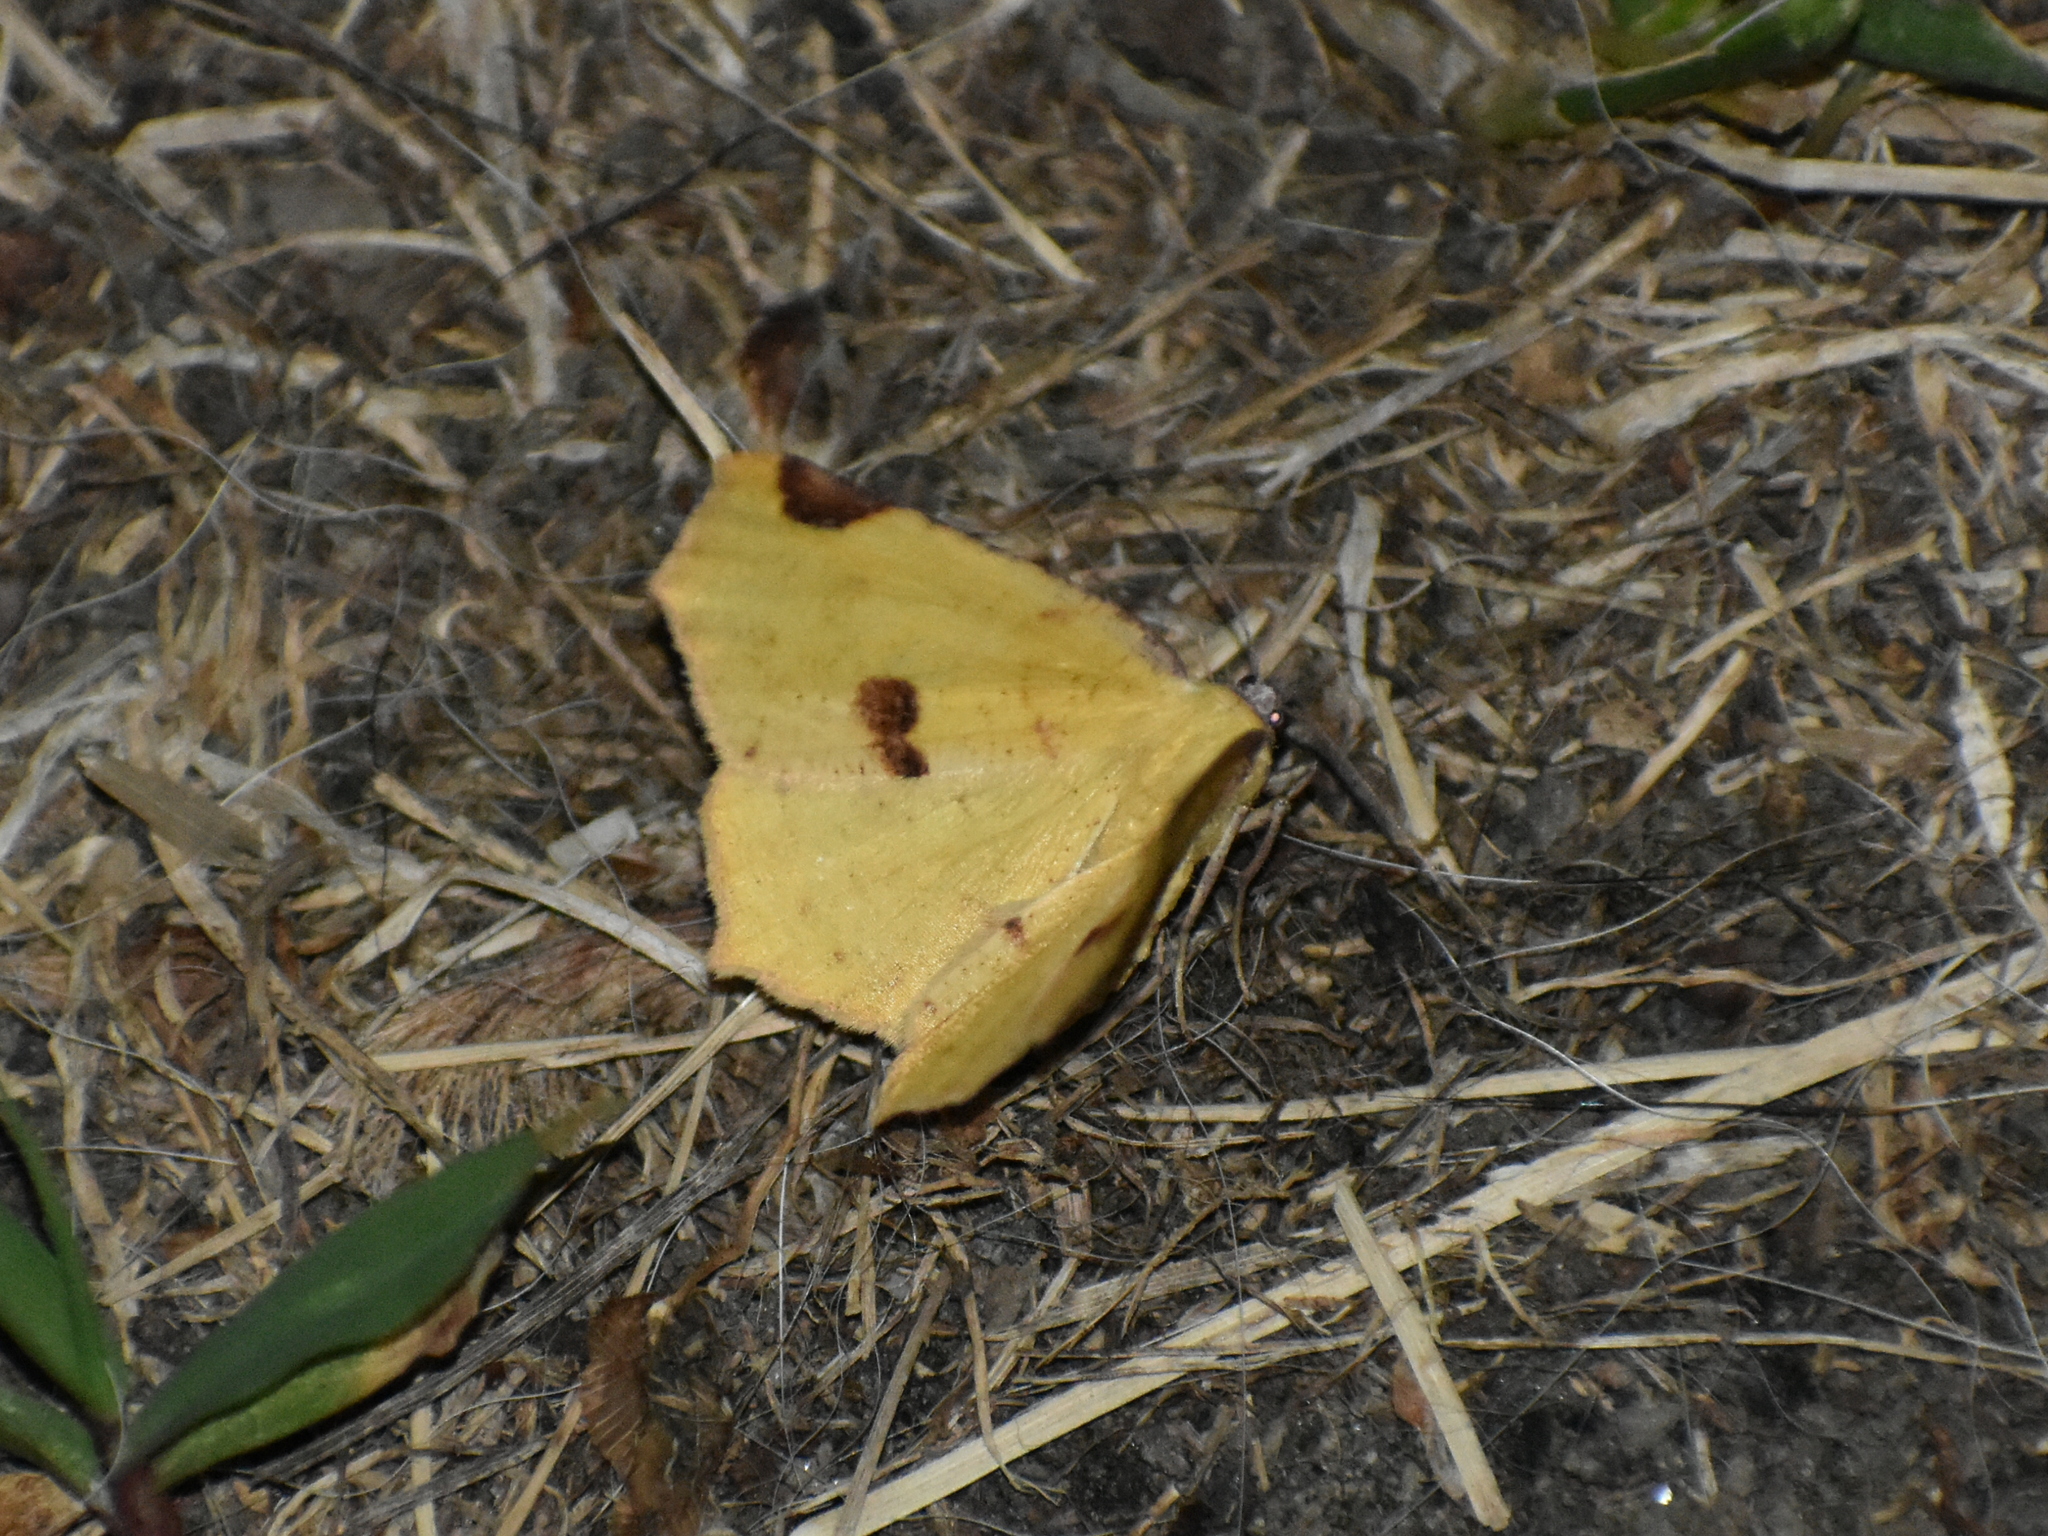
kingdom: Animalia
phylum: Arthropoda
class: Insecta
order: Lepidoptera
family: Geometridae
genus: Antepione
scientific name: Antepione thisoaria
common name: Variable antipione
